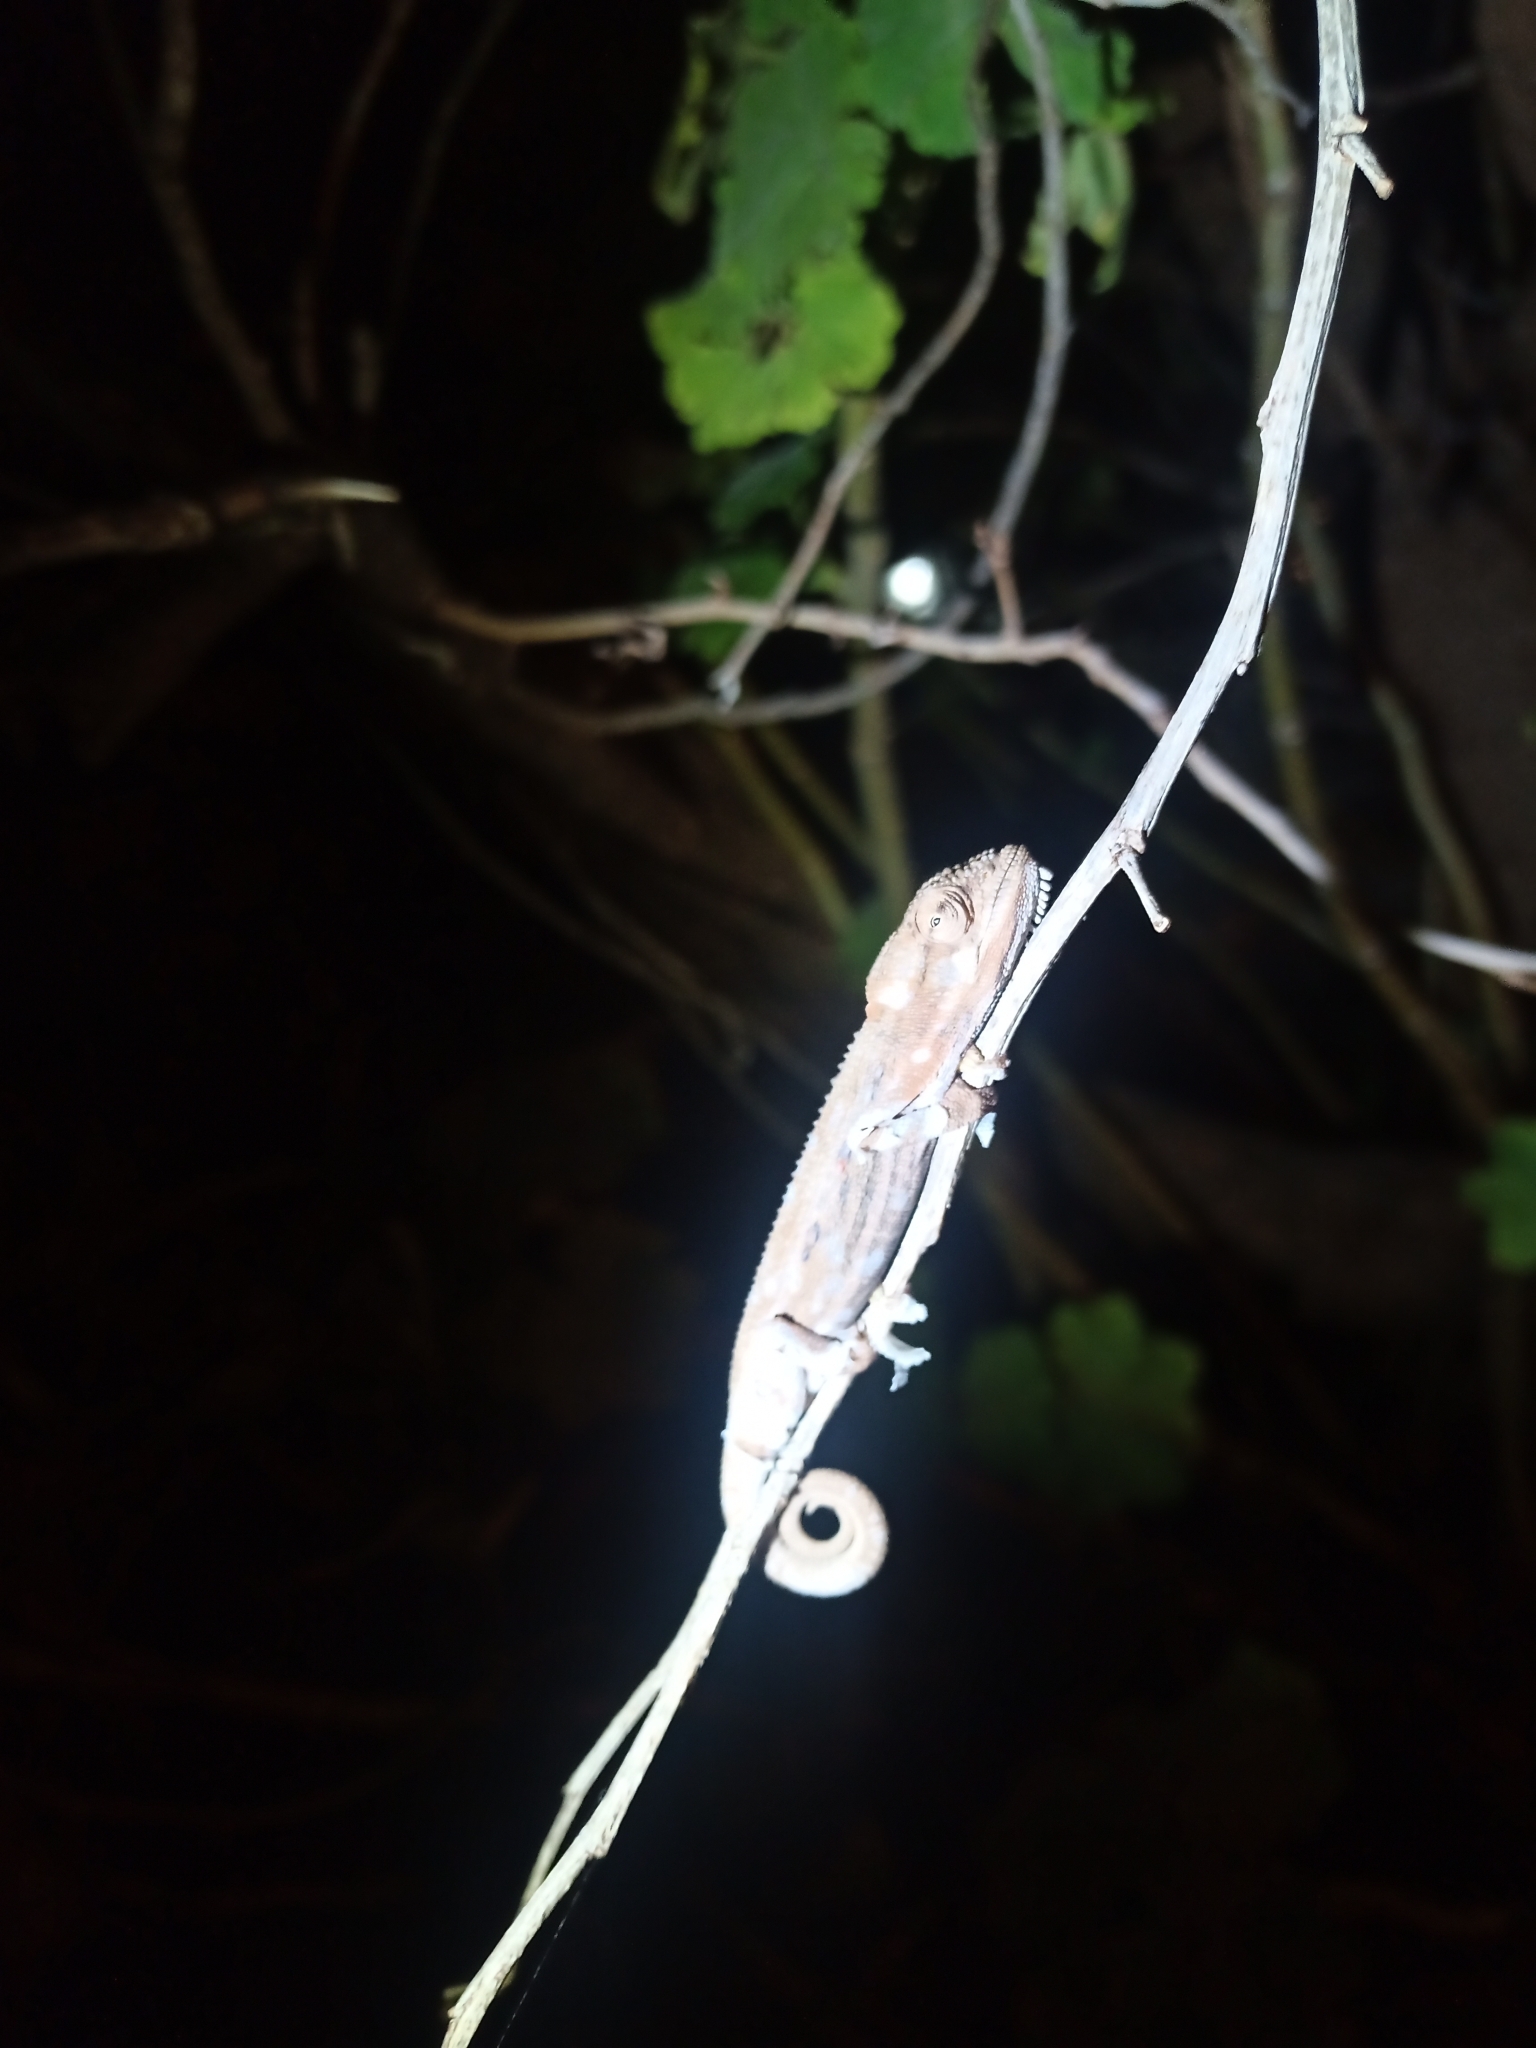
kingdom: Animalia
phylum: Chordata
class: Squamata
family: Chamaeleonidae
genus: Bradypodion
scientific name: Bradypodion pumilum
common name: Cape dwarf chameleon
